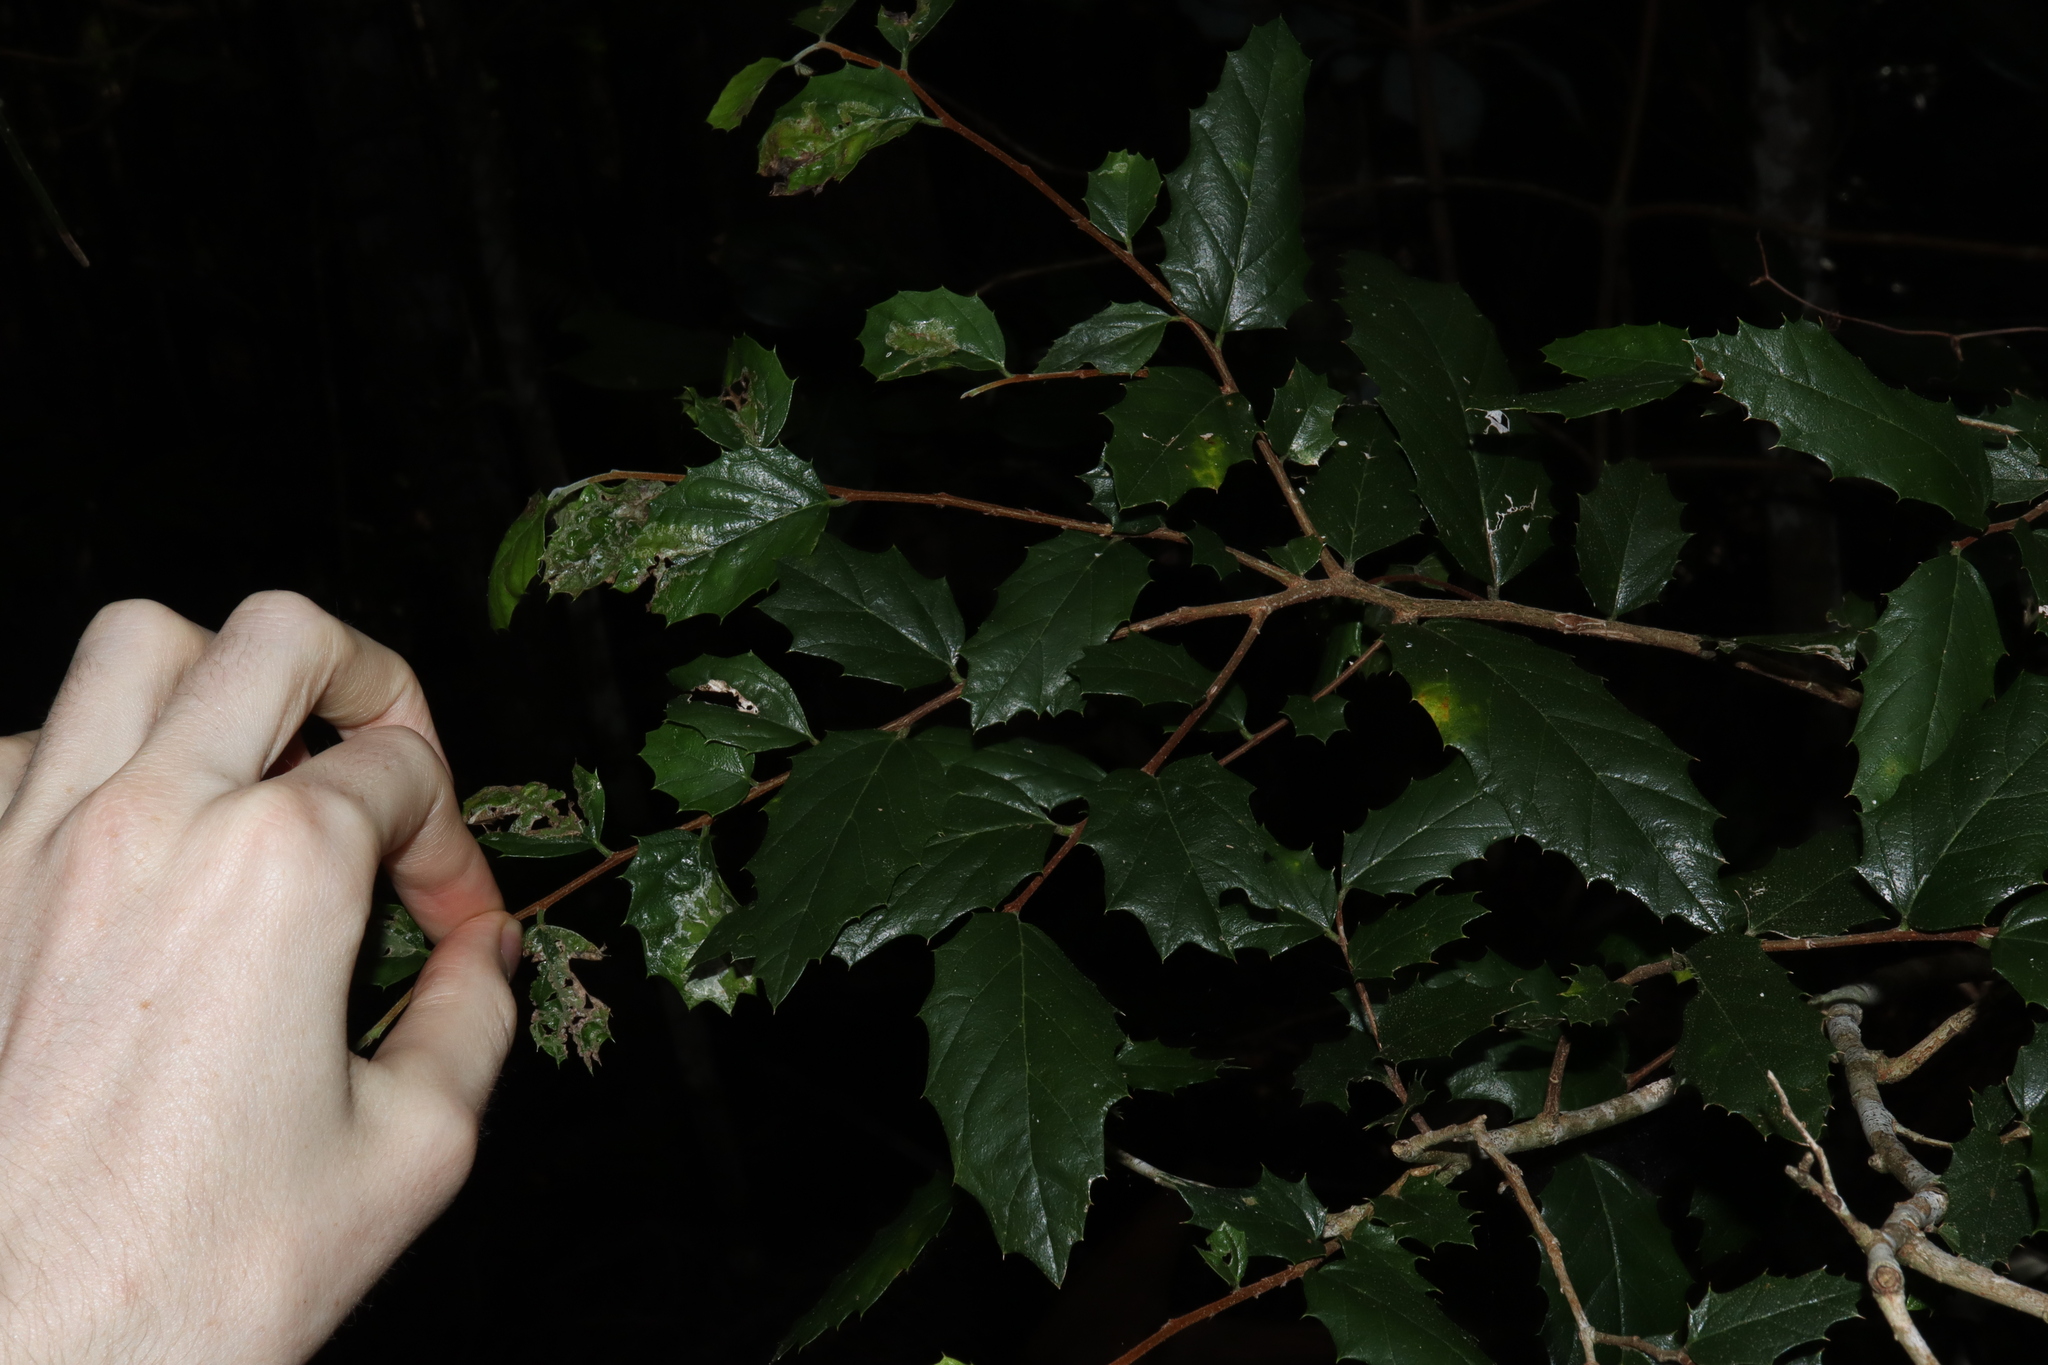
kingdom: Plantae
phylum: Tracheophyta
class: Magnoliopsida
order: Rosales
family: Cannabaceae
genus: Aphananthe
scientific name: Aphananthe philippinensis
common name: Wild holly
